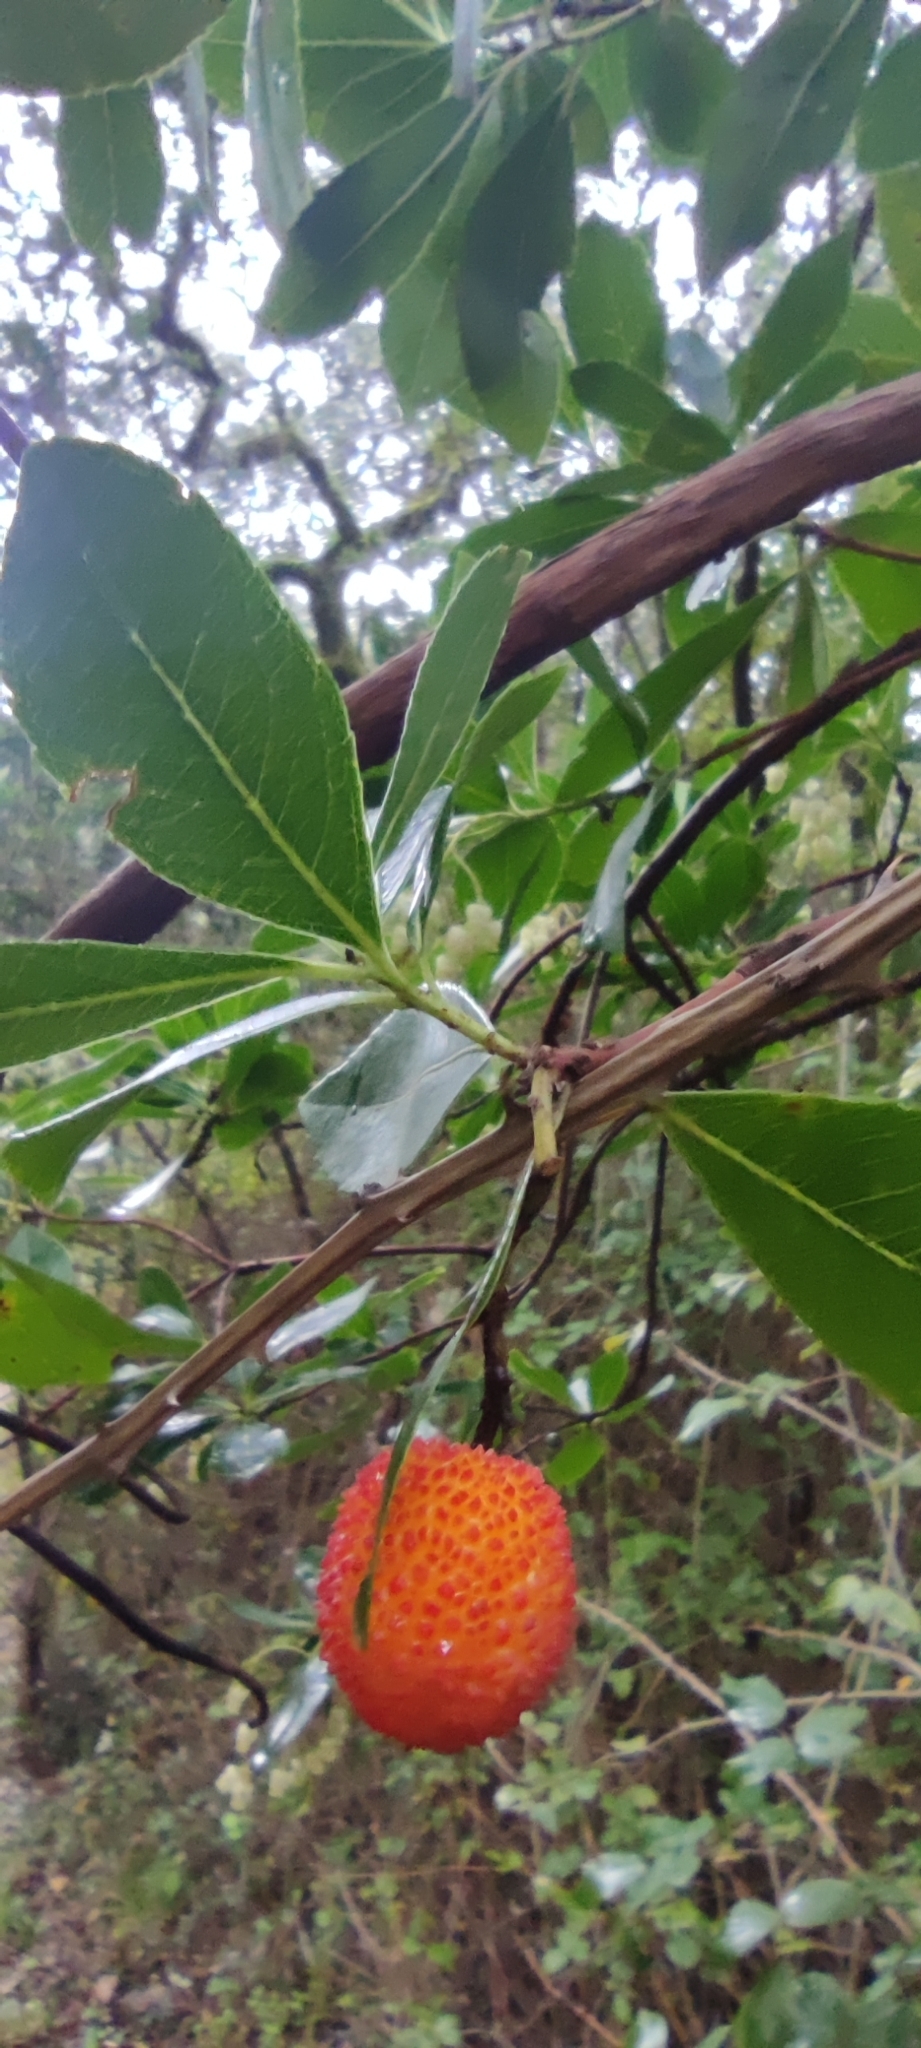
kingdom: Plantae
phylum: Tracheophyta
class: Magnoliopsida
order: Ericales
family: Ericaceae
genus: Arbutus
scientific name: Arbutus unedo
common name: Strawberry-tree
